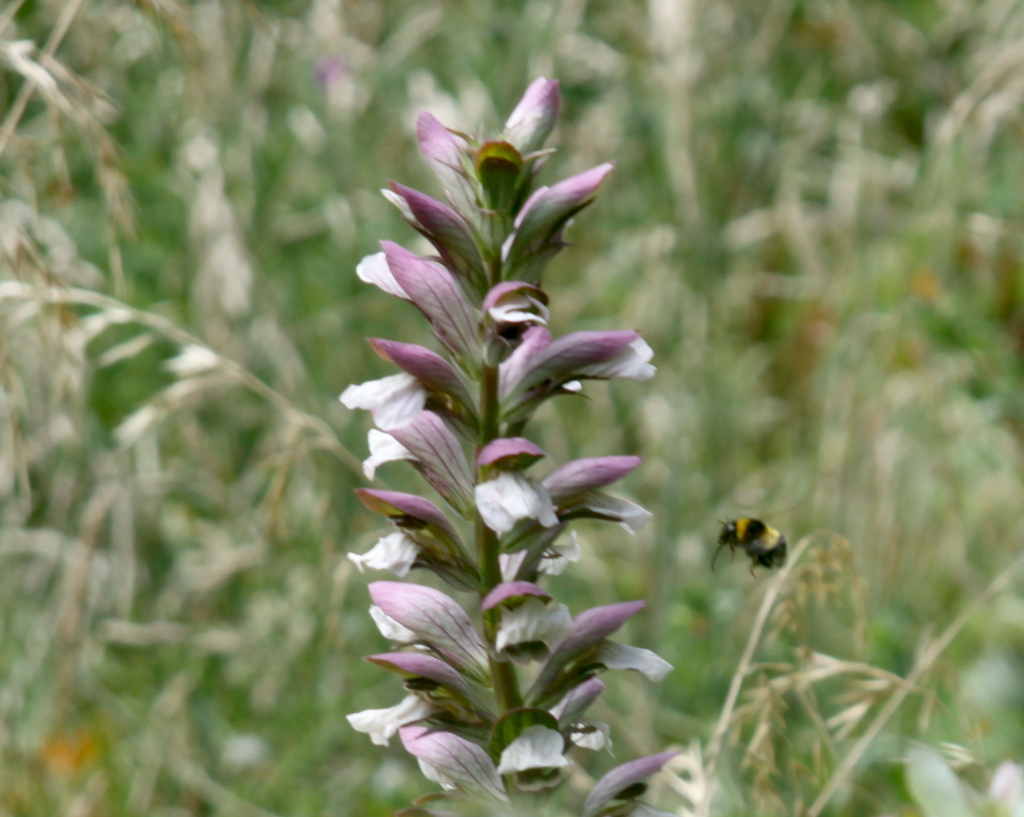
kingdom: Animalia
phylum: Arthropoda
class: Insecta
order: Hymenoptera
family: Apidae
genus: Megabombus
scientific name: Megabombus
